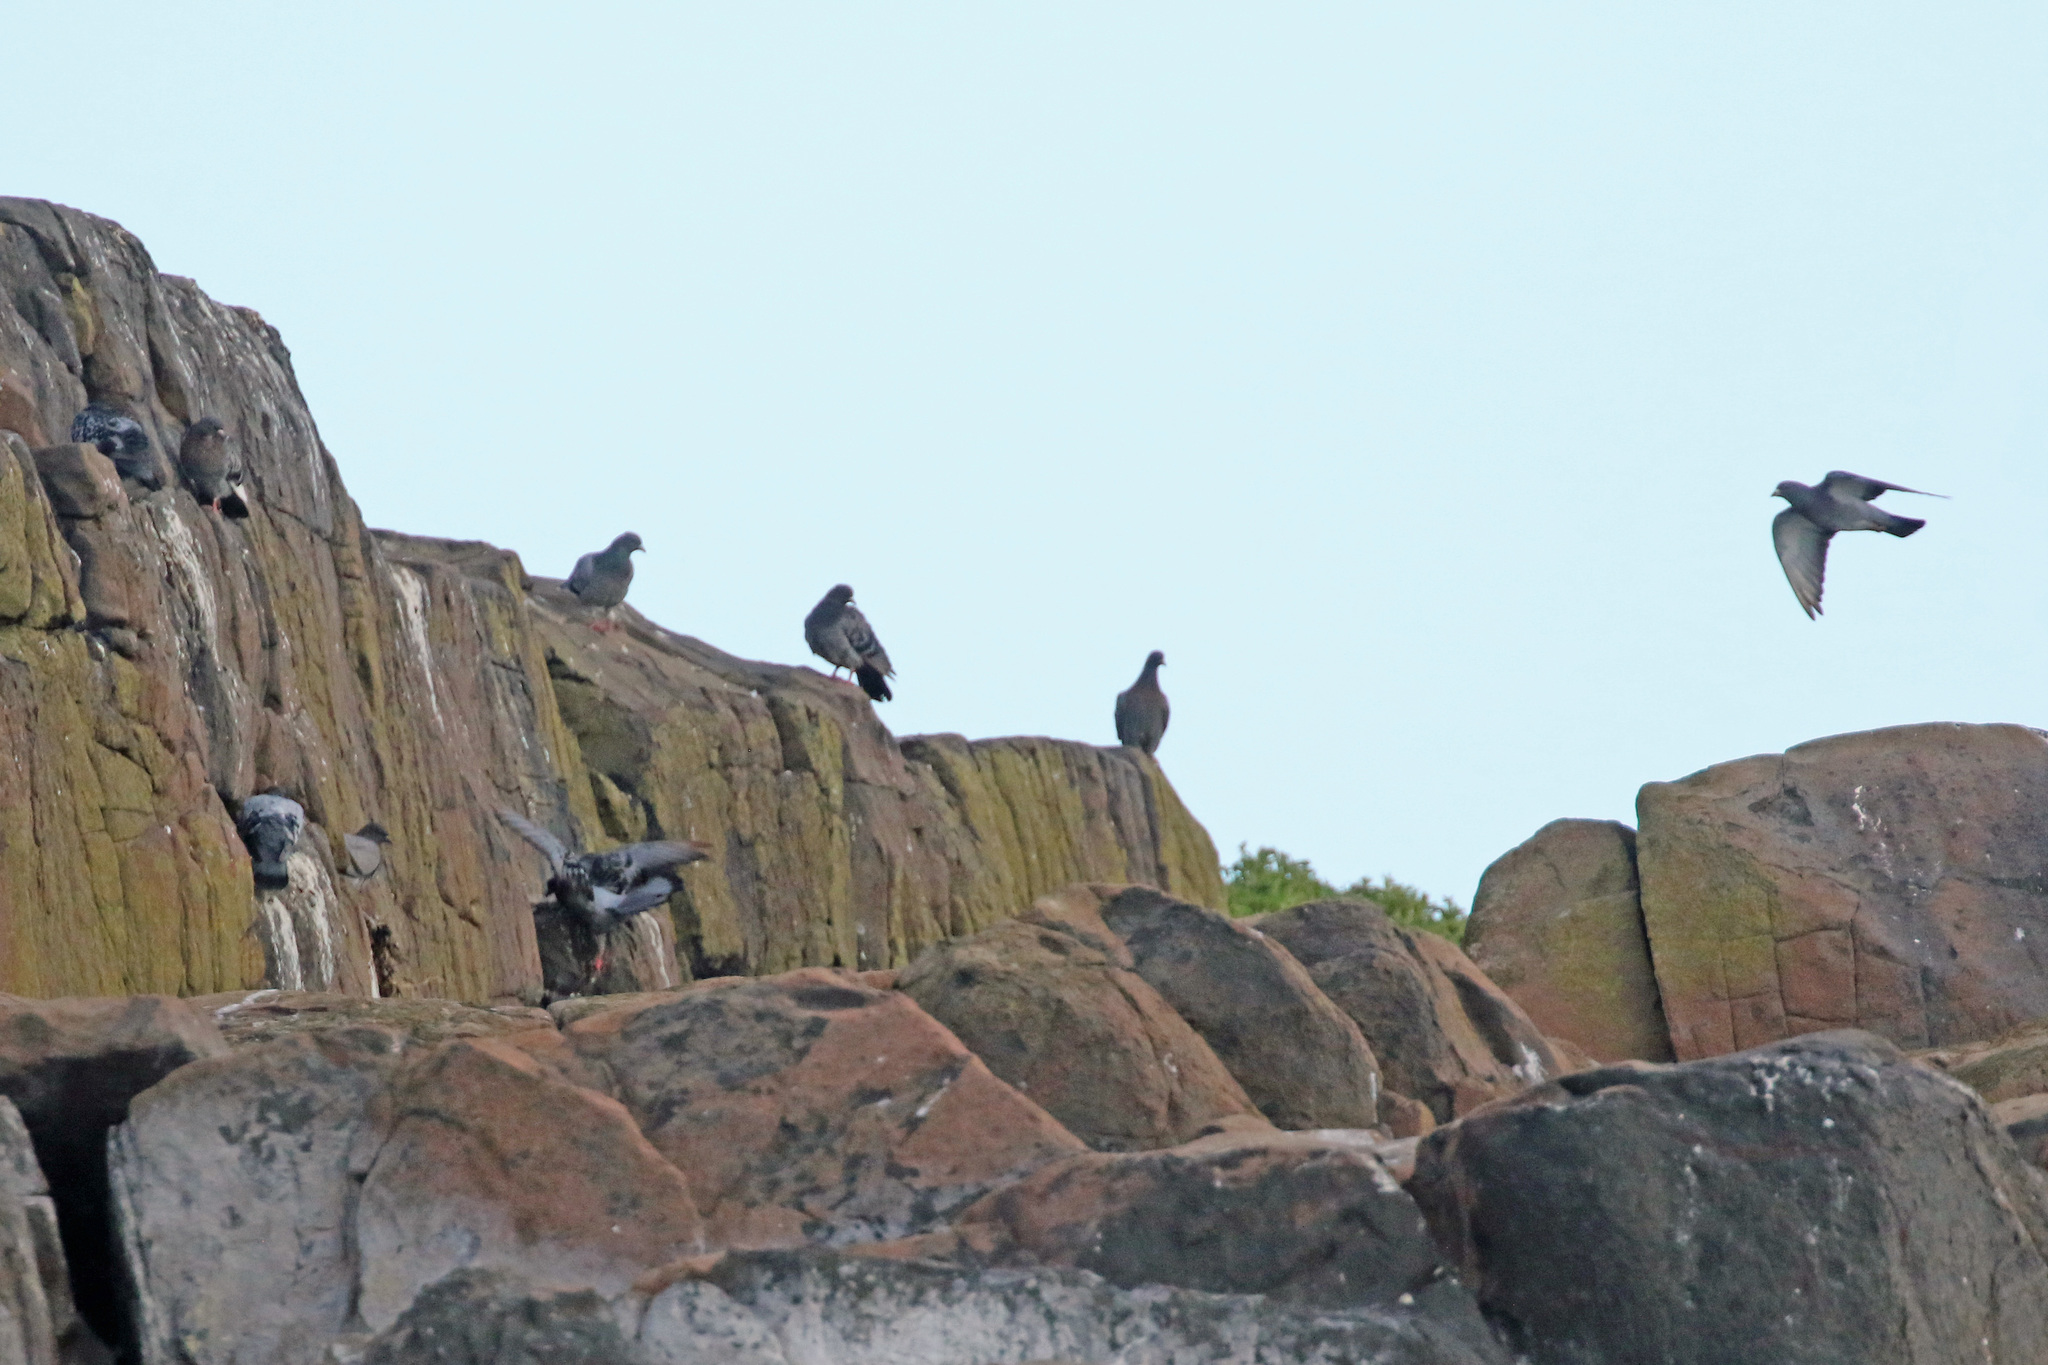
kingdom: Animalia
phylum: Chordata
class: Aves
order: Columbiformes
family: Columbidae
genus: Columba
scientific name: Columba livia
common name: Rock pigeon
